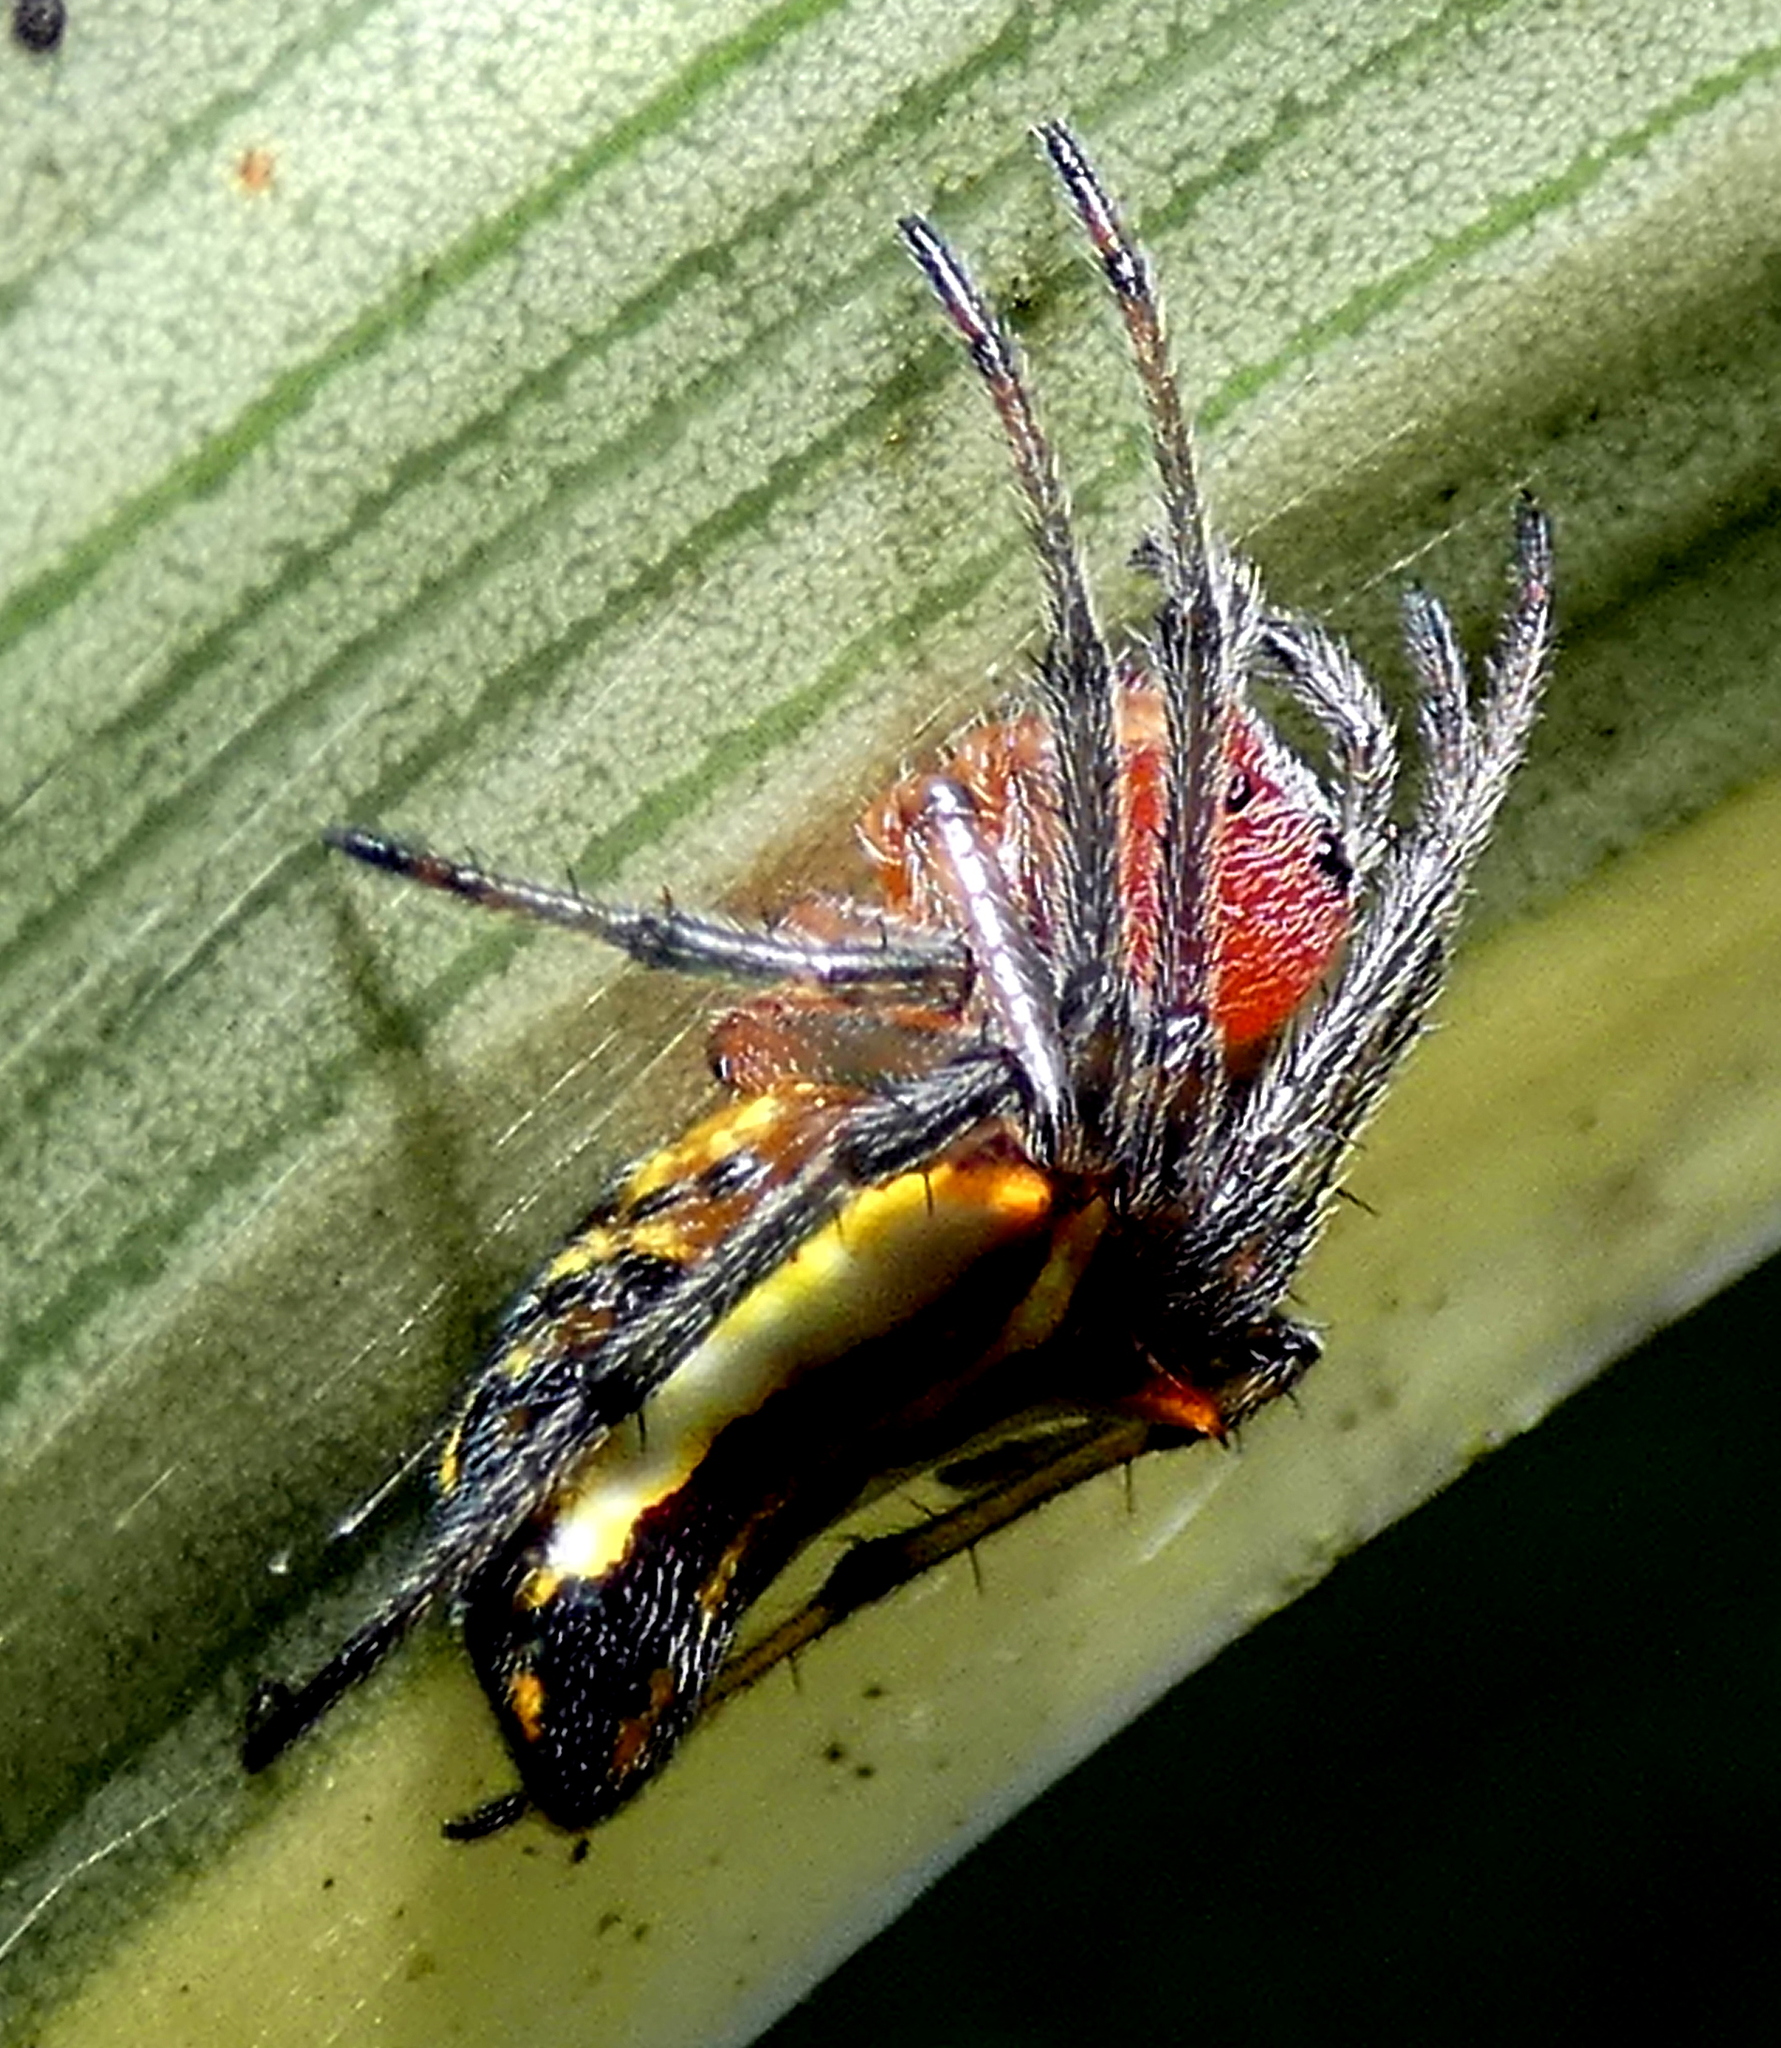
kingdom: Animalia
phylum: Arthropoda
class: Arachnida
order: Araneae
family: Araneidae
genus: Alpaida
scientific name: Alpaida bicornuta
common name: Orb weavers
